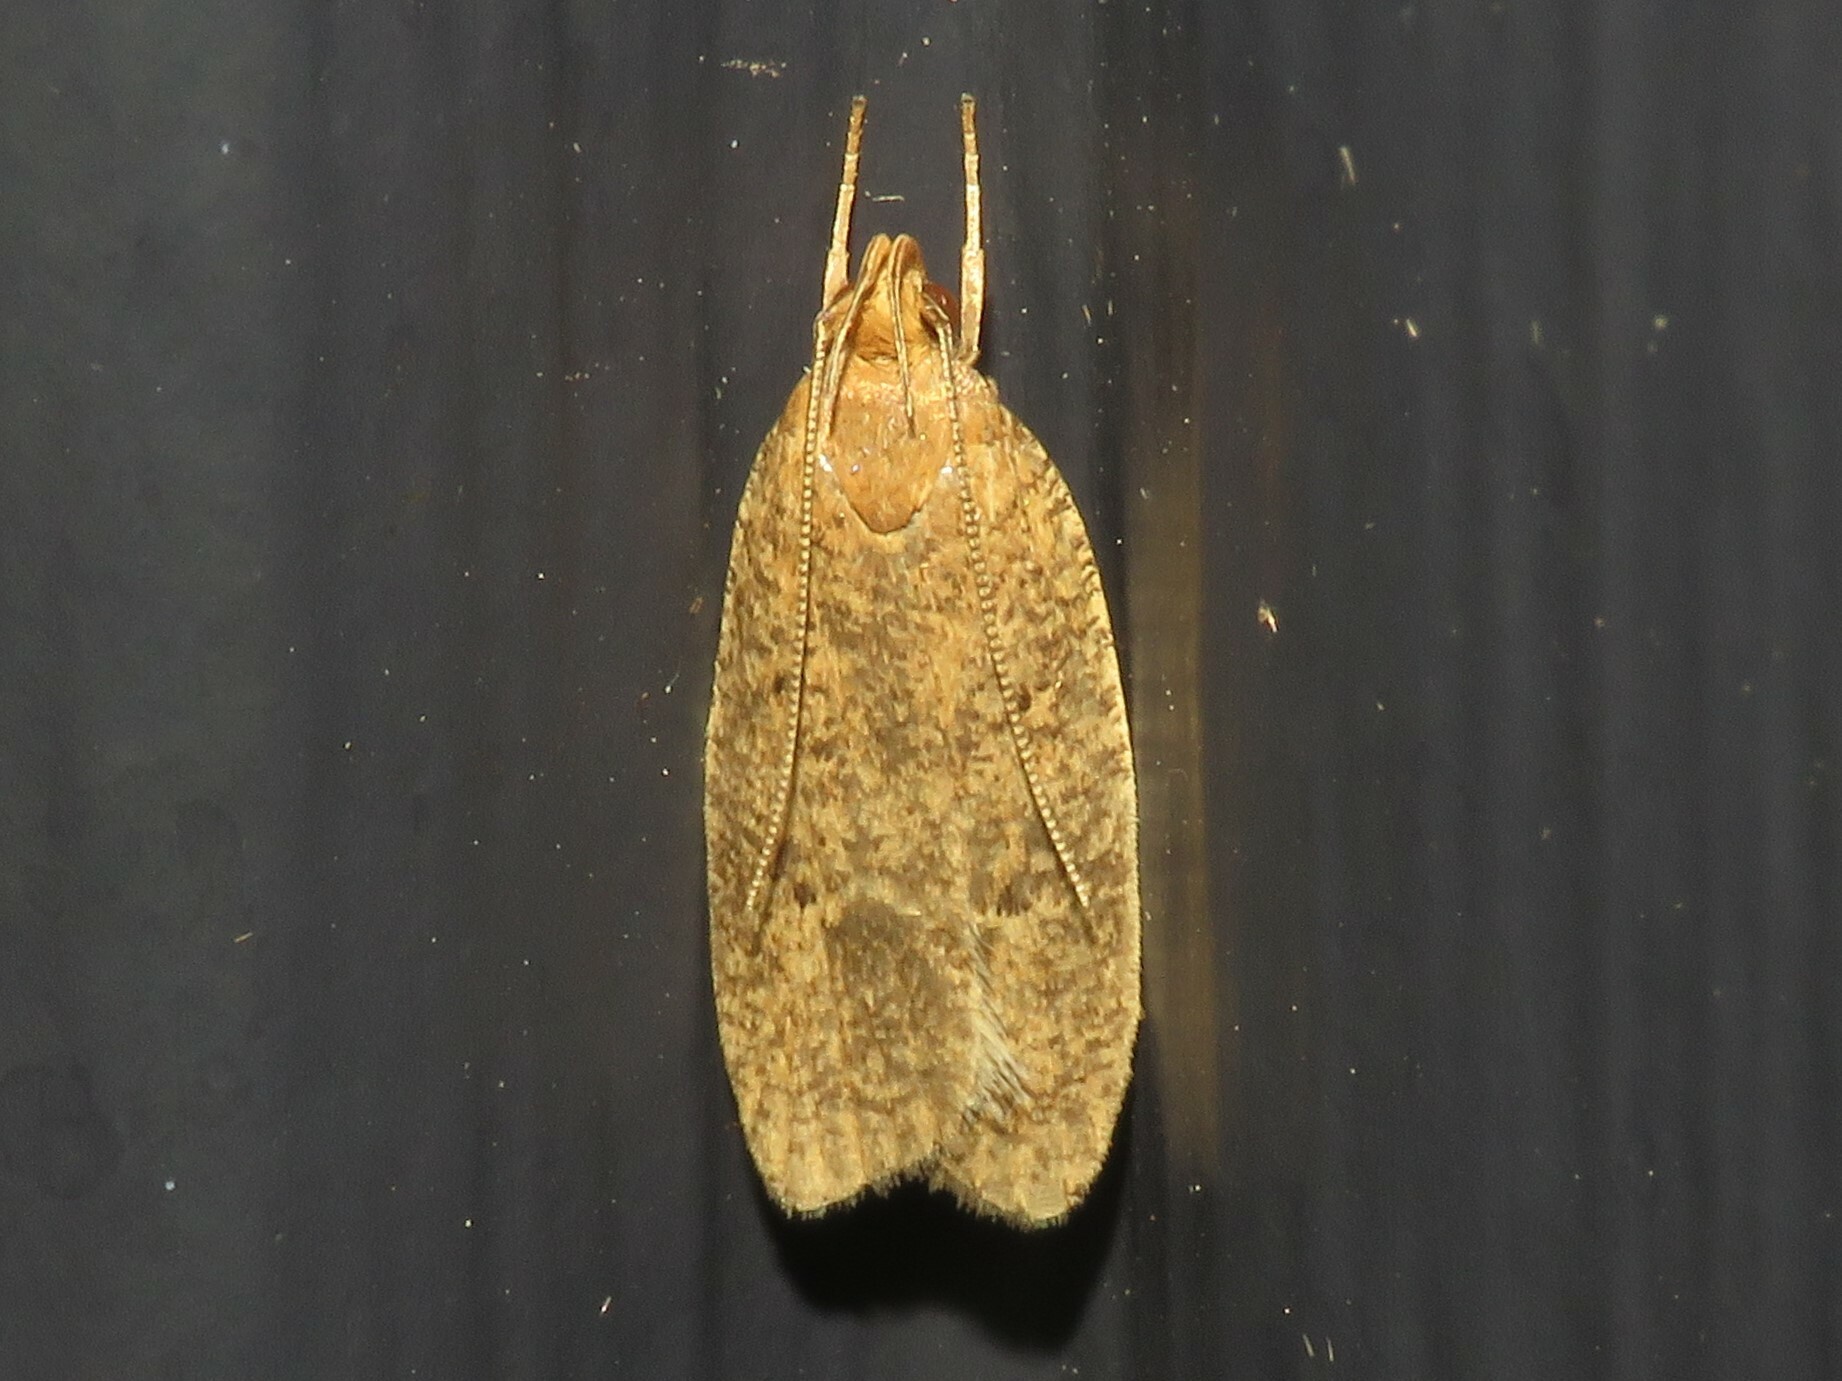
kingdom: Animalia
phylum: Arthropoda
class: Insecta
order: Lepidoptera
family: Depressariidae
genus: Psilocorsis
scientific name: Psilocorsis reflexella
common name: Dotted leaftier moth
